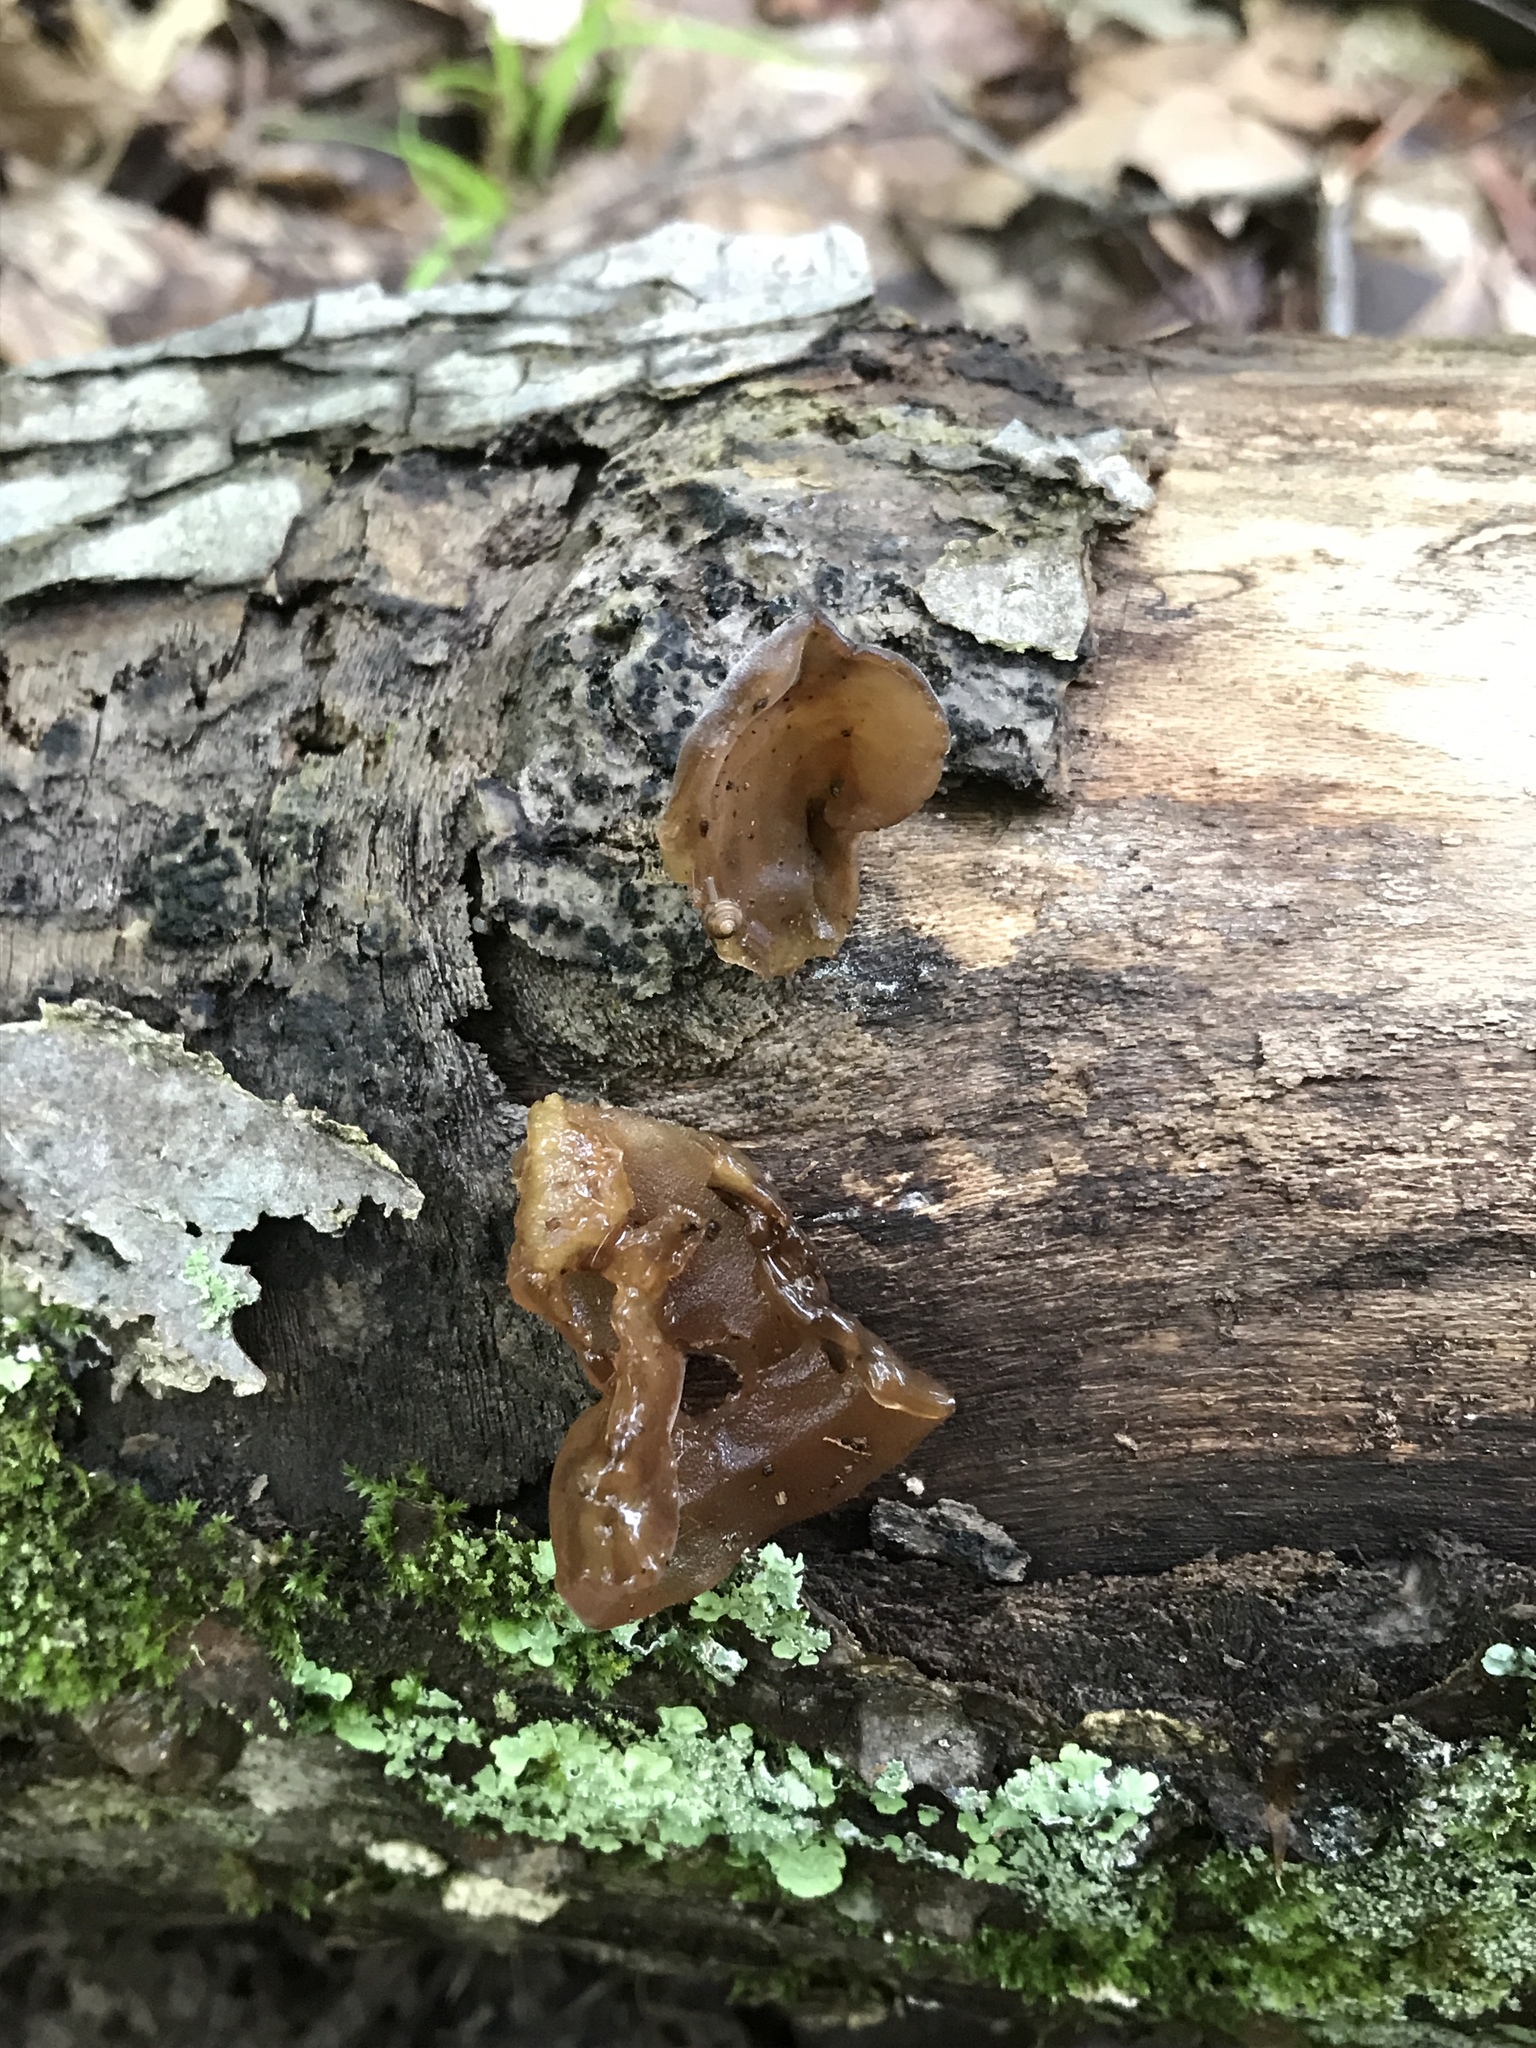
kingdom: Fungi
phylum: Basidiomycota
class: Agaricomycetes
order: Auriculariales
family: Auriculariaceae
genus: Auricularia
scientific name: Auricularia angiospermarum
